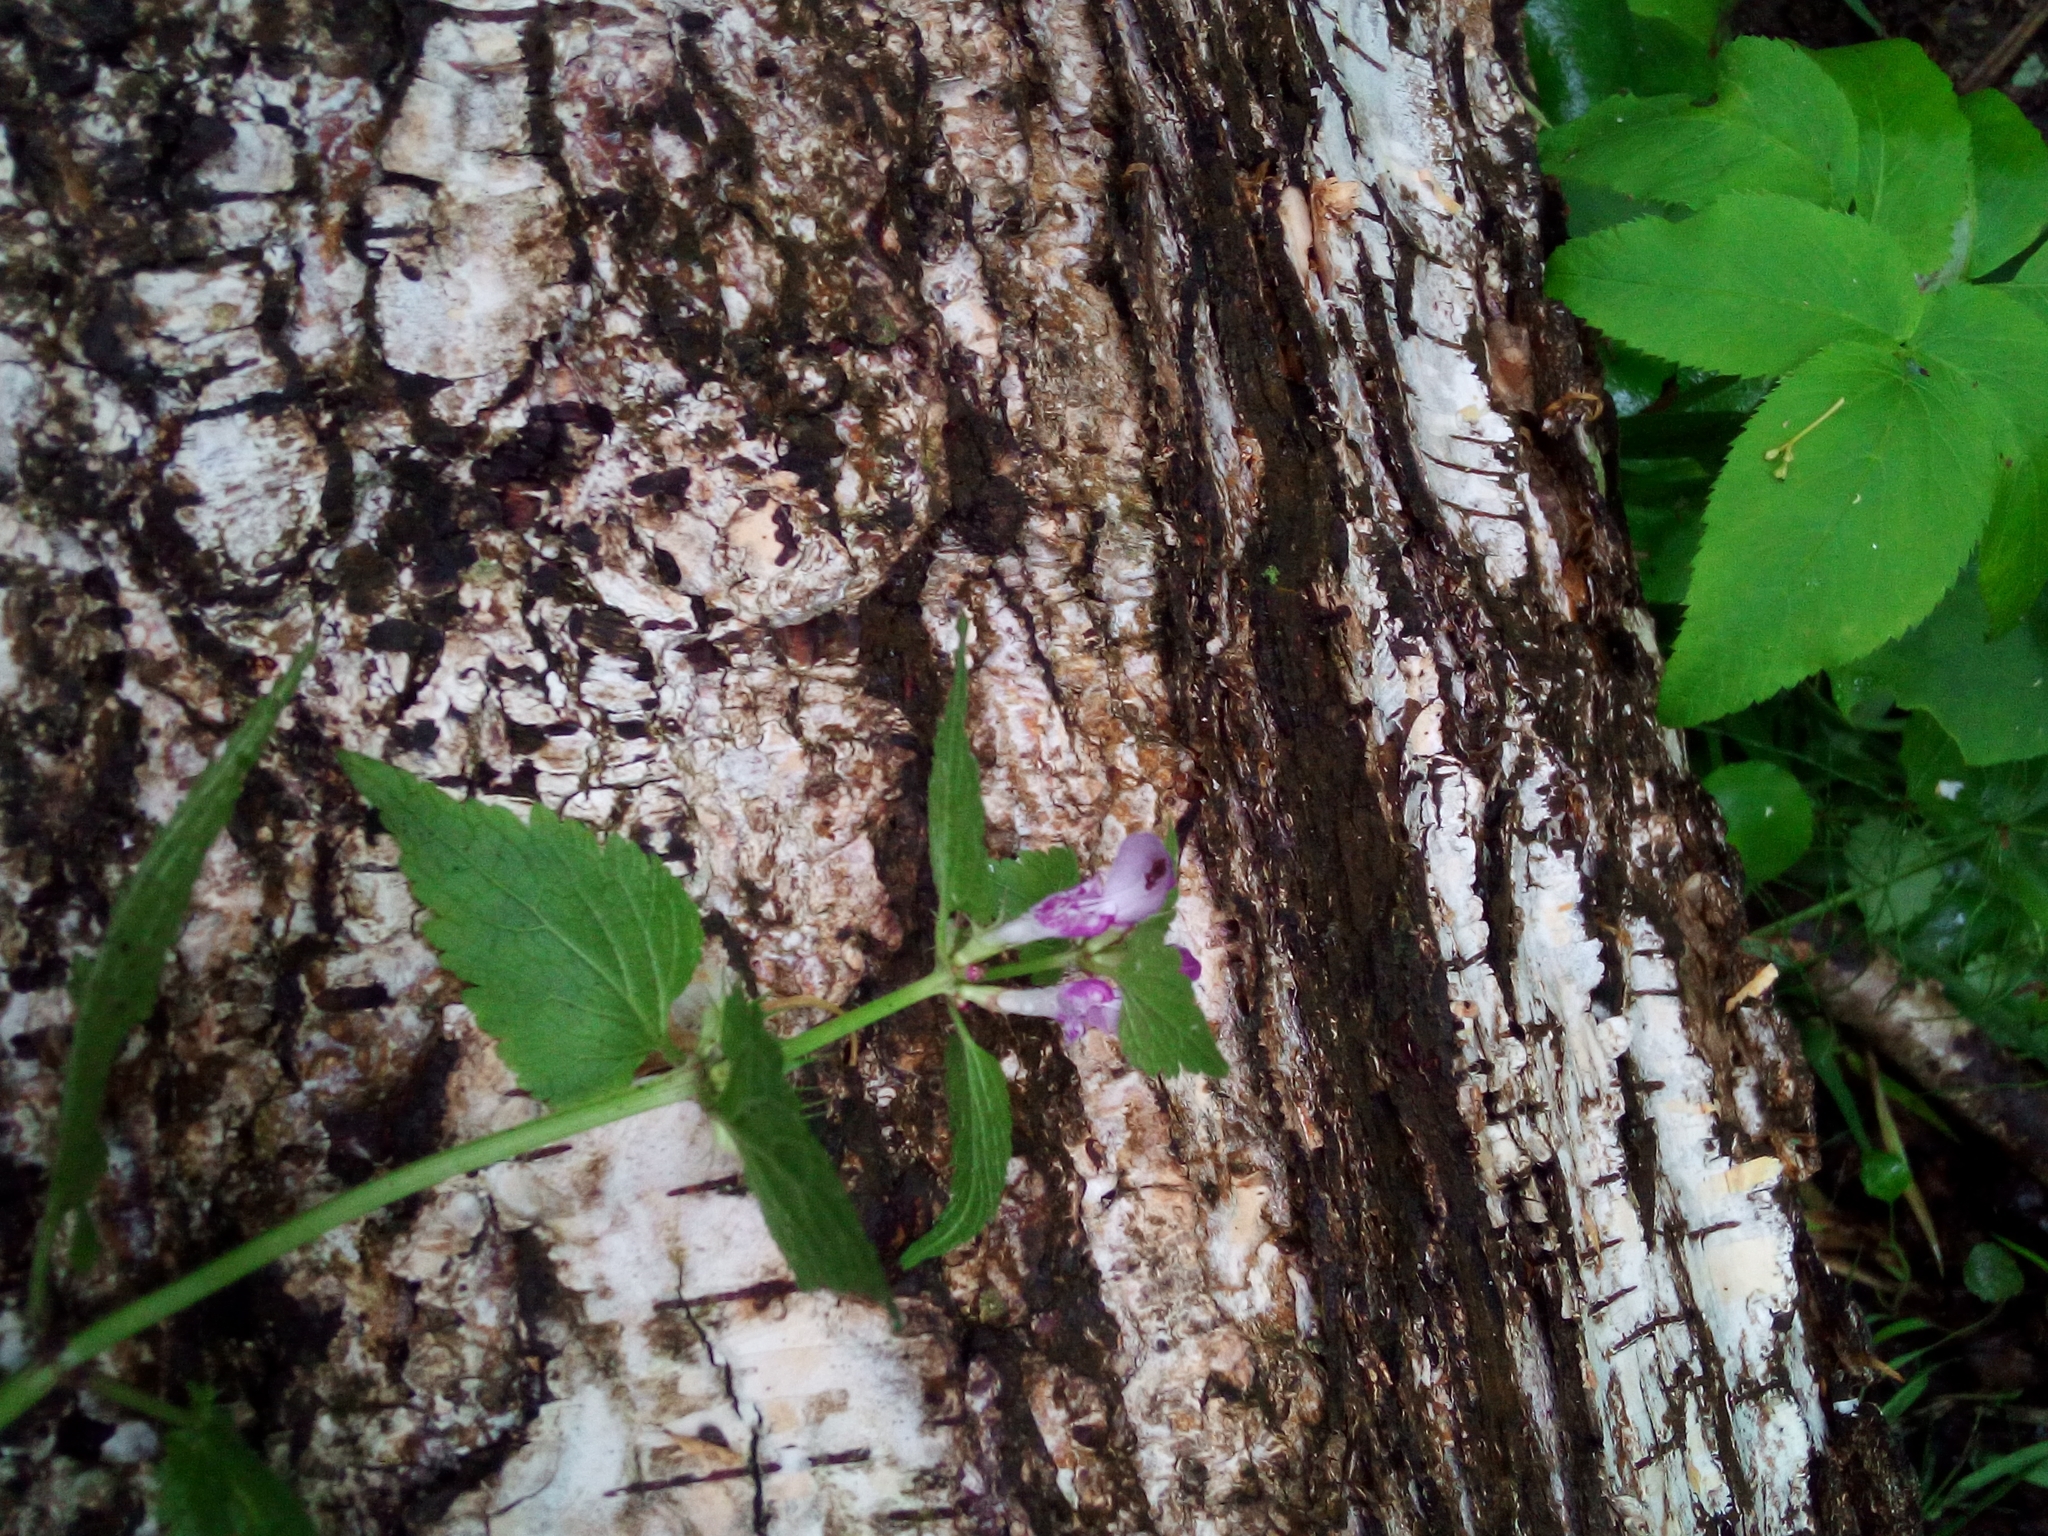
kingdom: Plantae
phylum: Tracheophyta
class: Magnoliopsida
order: Lamiales
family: Lamiaceae
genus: Lamium
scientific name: Lamium maculatum
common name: Spotted dead-nettle
